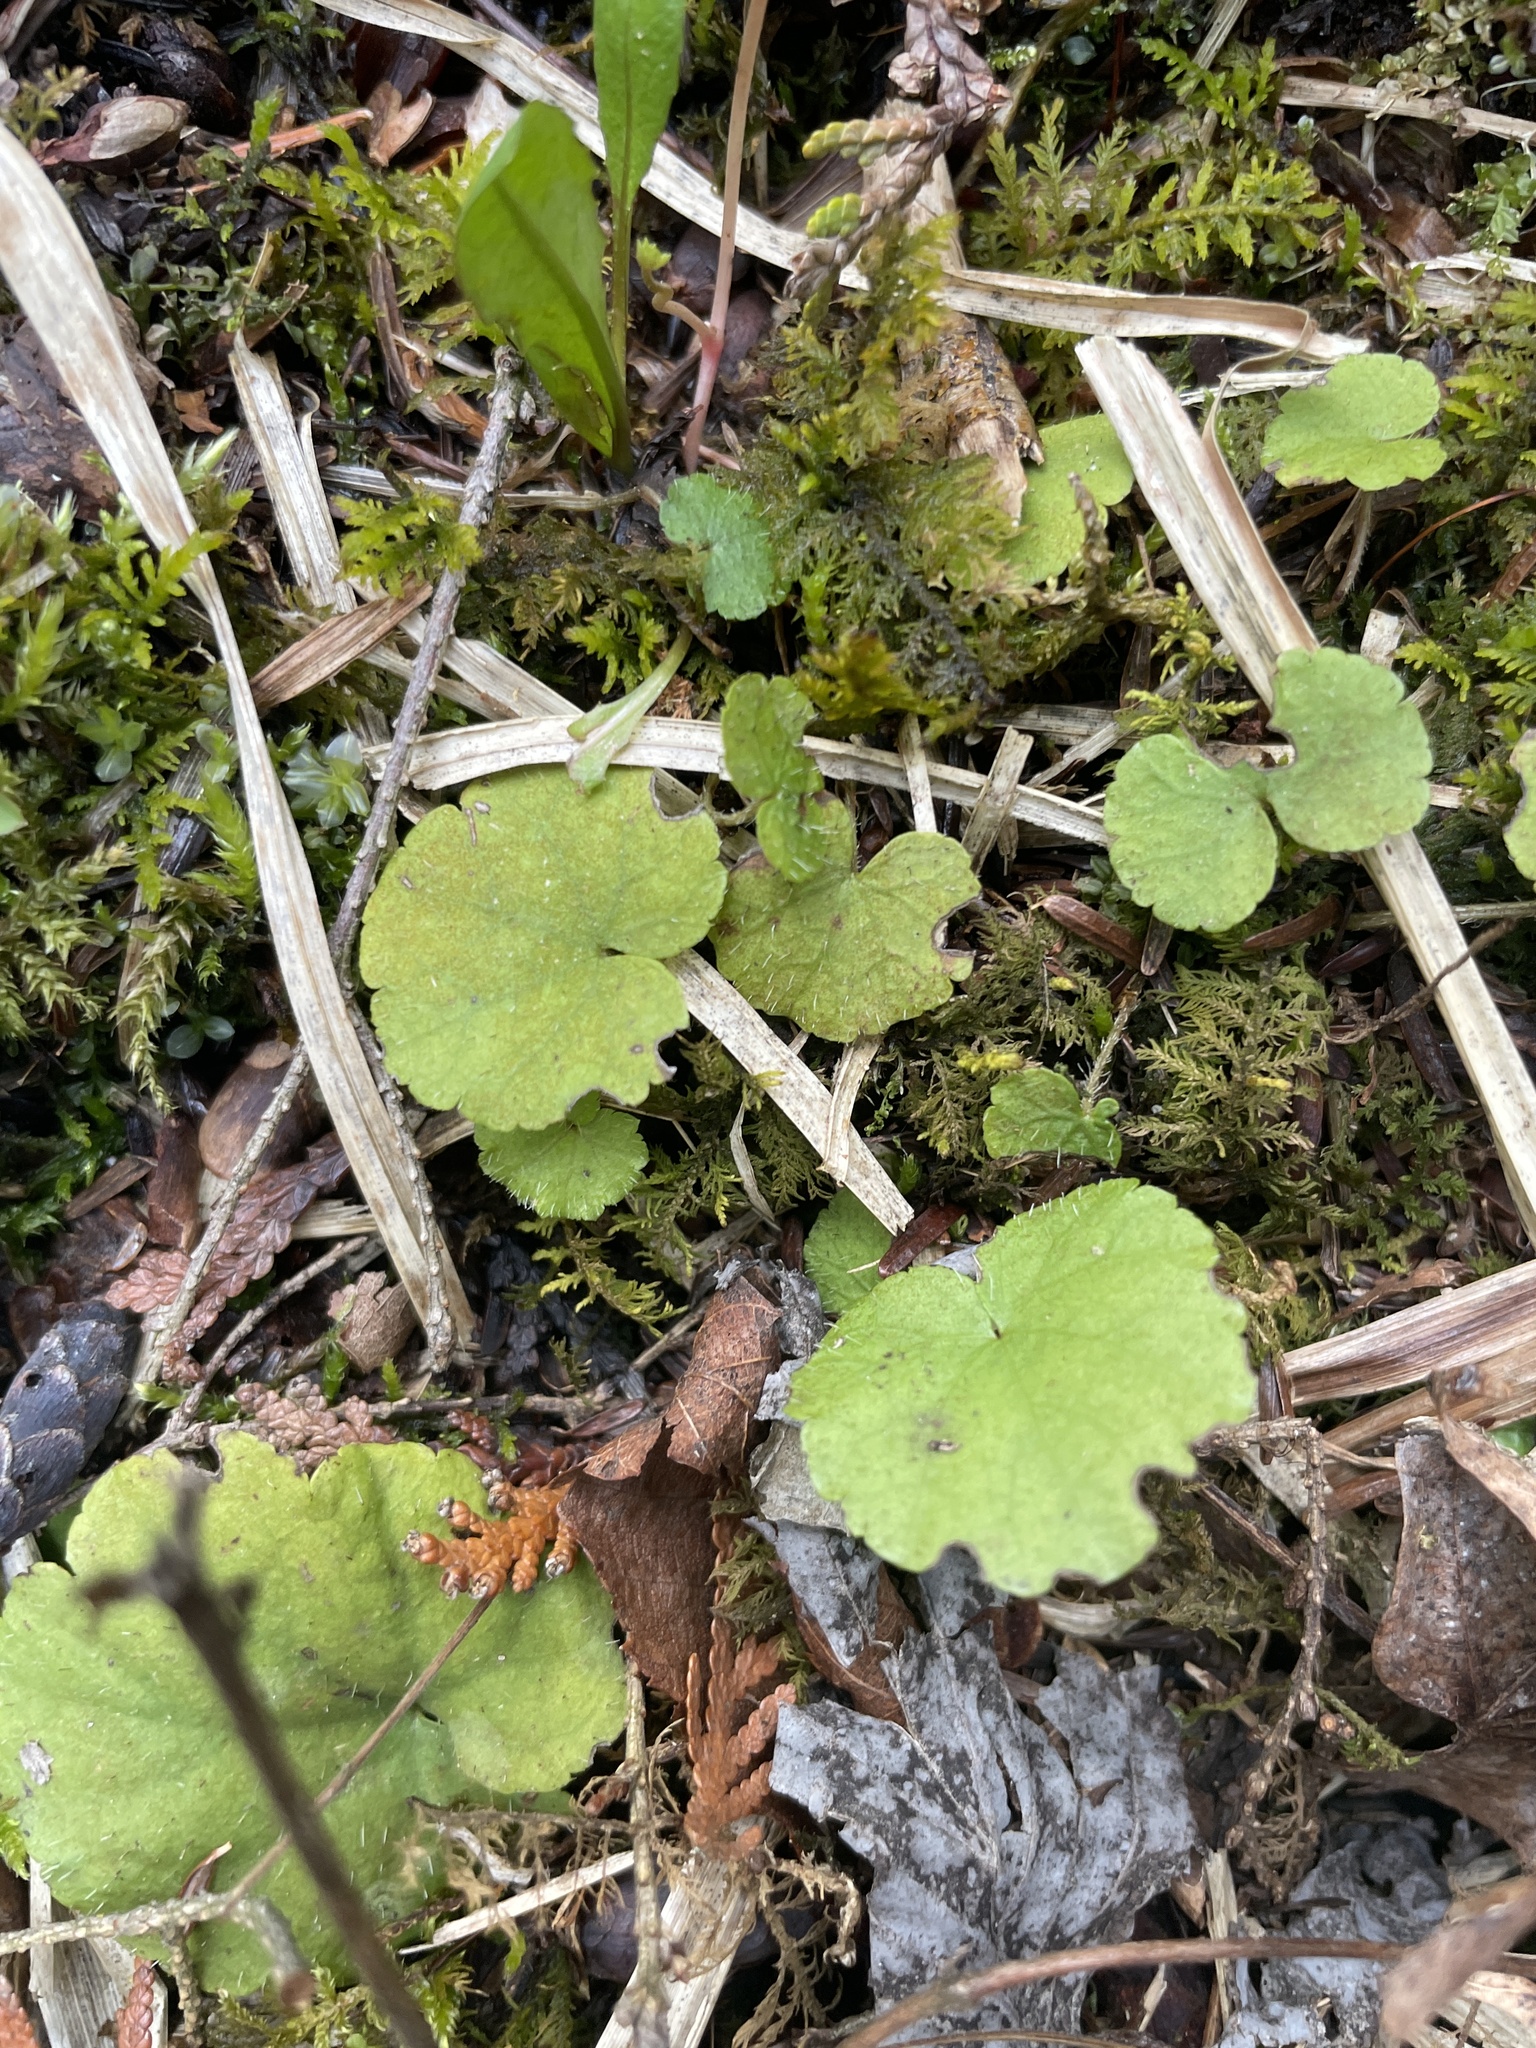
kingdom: Plantae
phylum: Tracheophyta
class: Magnoliopsida
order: Saxifragales
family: Saxifragaceae
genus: Mitella
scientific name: Mitella nuda
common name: Bare-stemmed bishop's-cap
